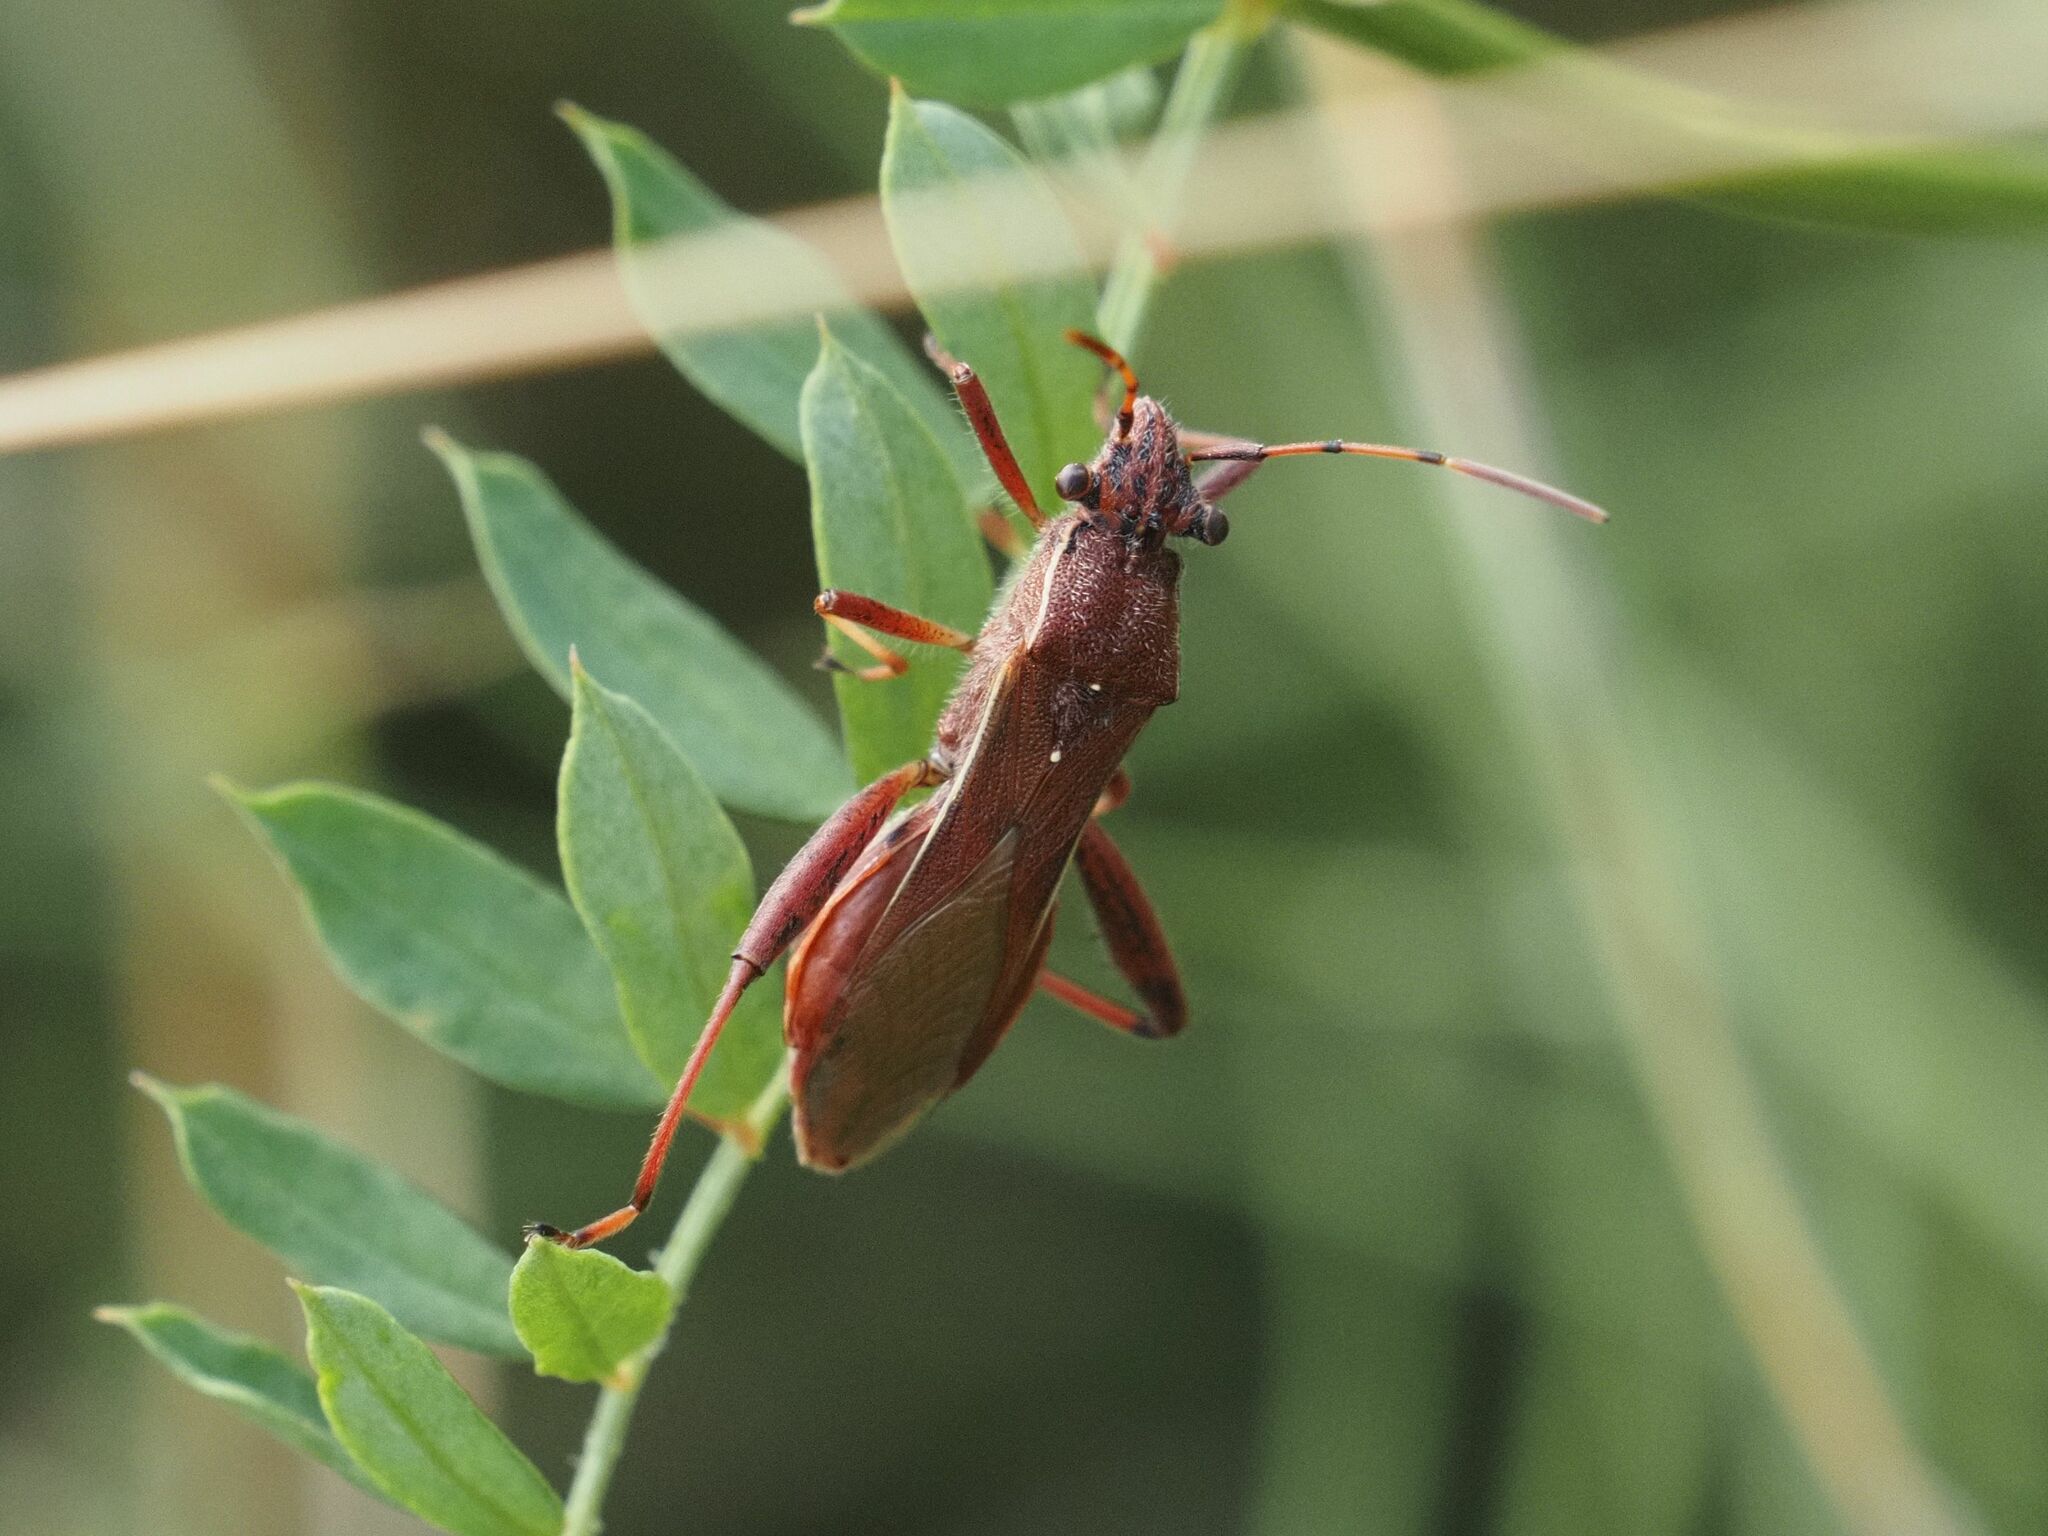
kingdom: Animalia
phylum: Arthropoda
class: Insecta
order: Hemiptera
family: Alydidae
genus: Camptopus
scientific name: Camptopus lateralis
